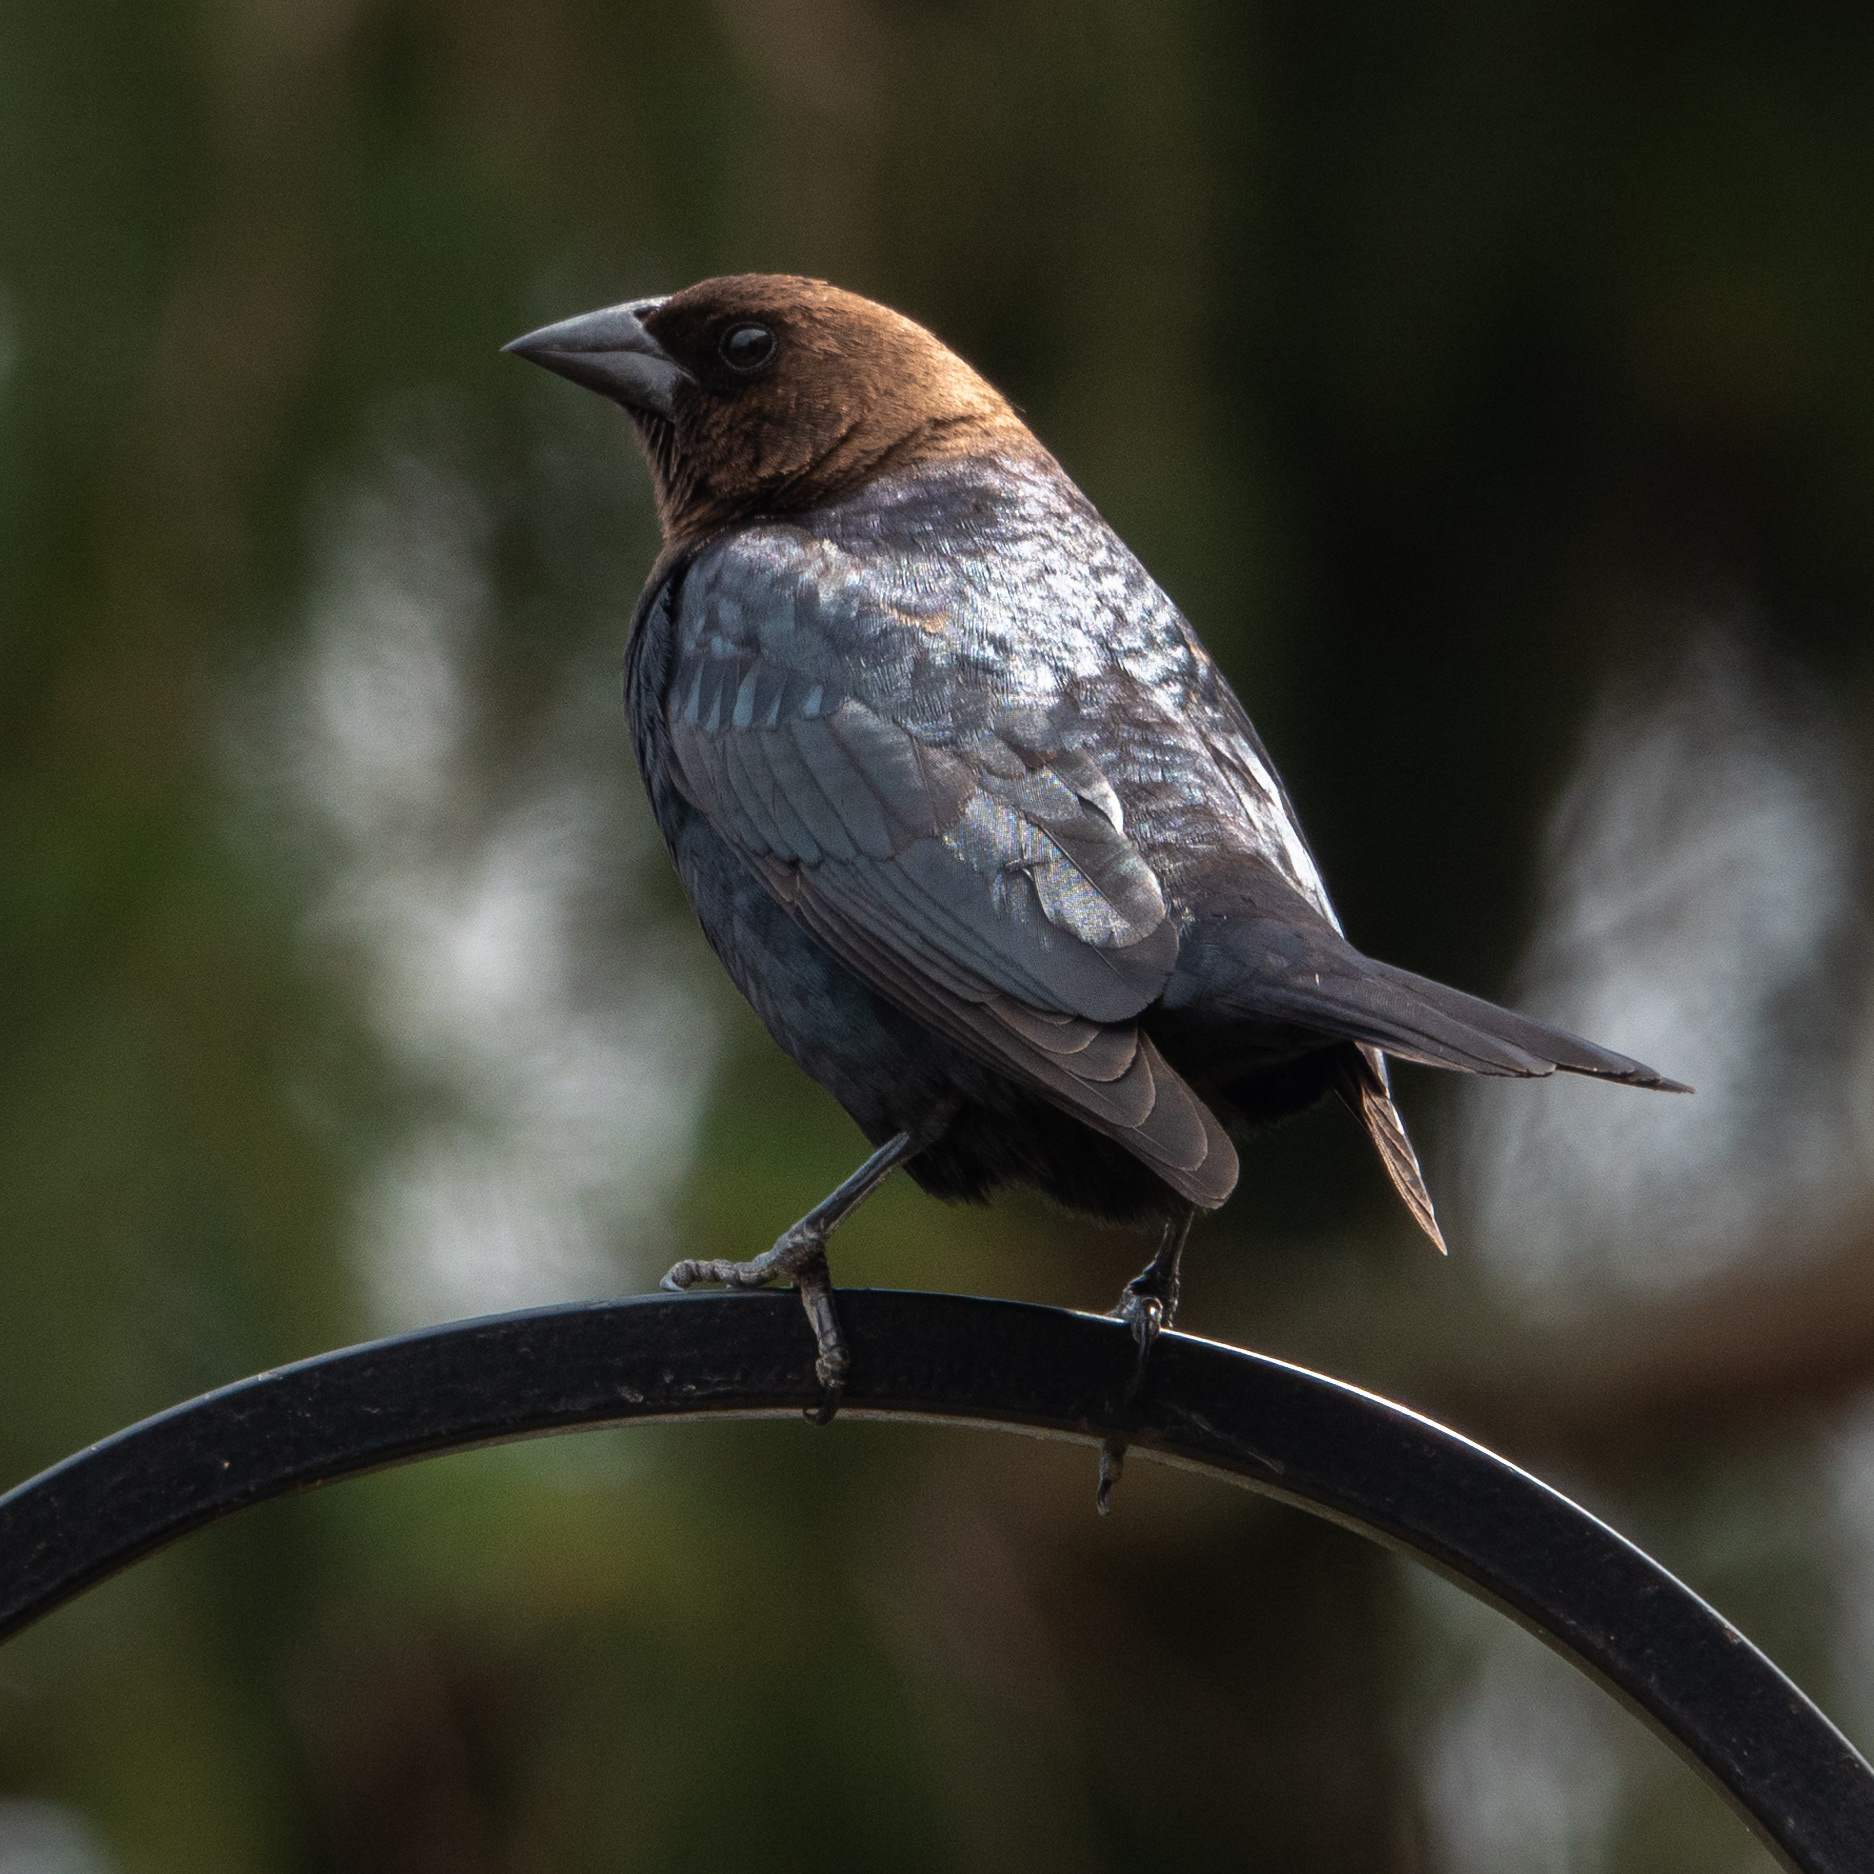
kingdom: Animalia
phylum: Chordata
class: Aves
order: Passeriformes
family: Icteridae
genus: Molothrus
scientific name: Molothrus ater
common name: Brown-headed cowbird
